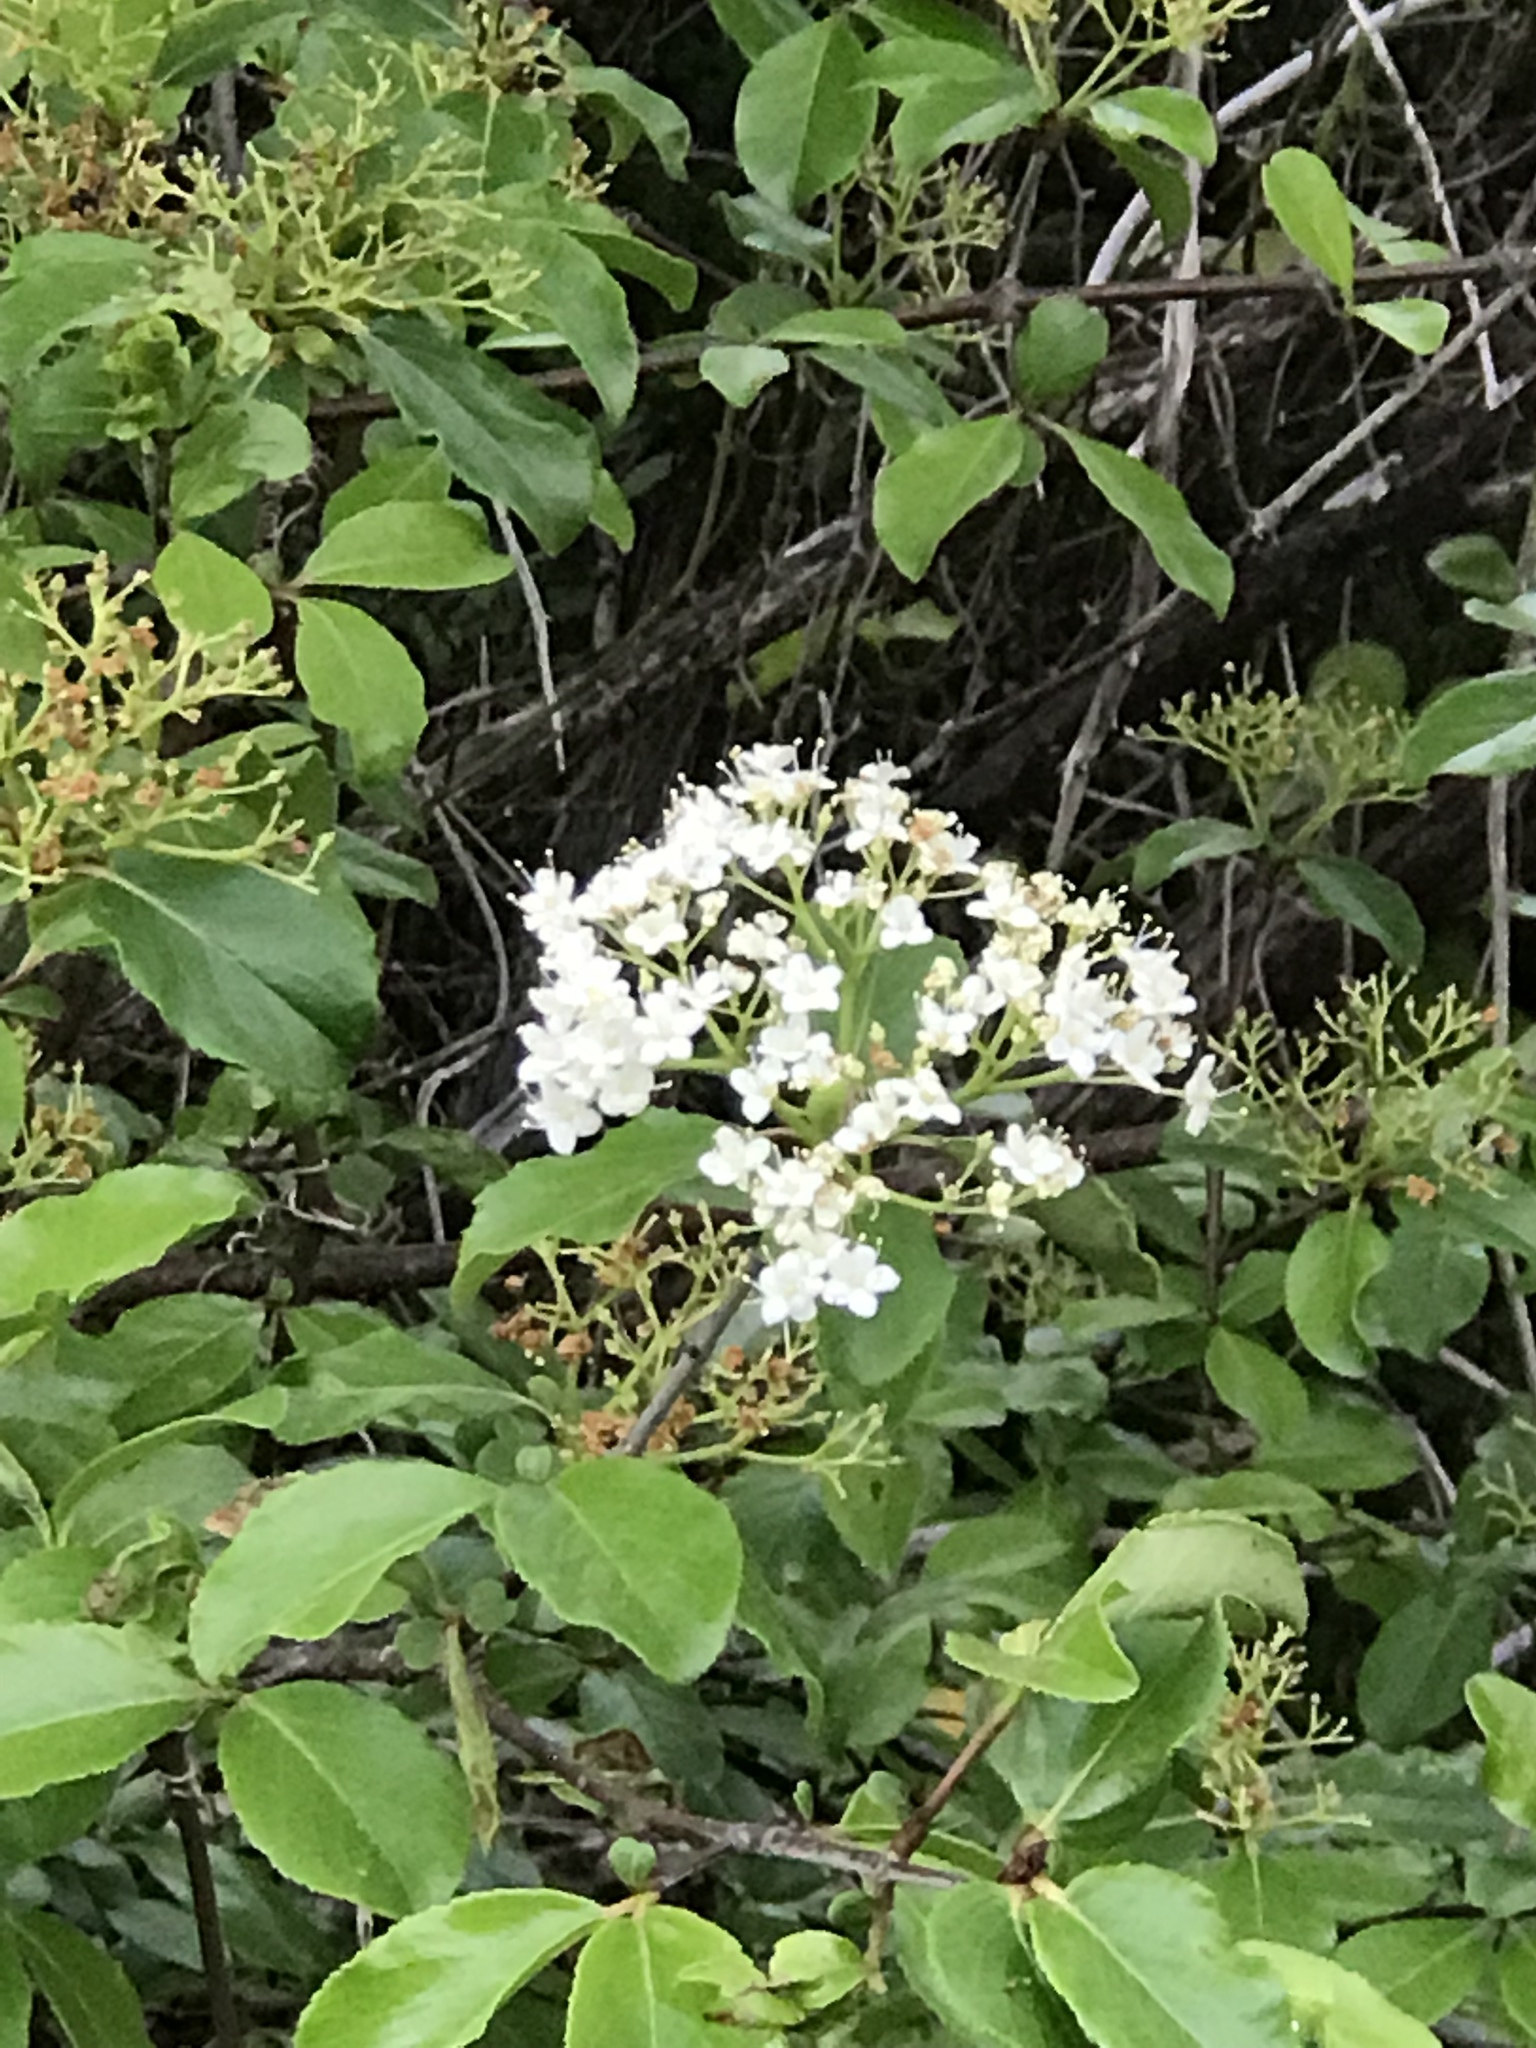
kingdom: Plantae
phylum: Tracheophyta
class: Magnoliopsida
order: Dipsacales
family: Viburnaceae
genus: Viburnum
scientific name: Viburnum rufidulum
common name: Blue haw
